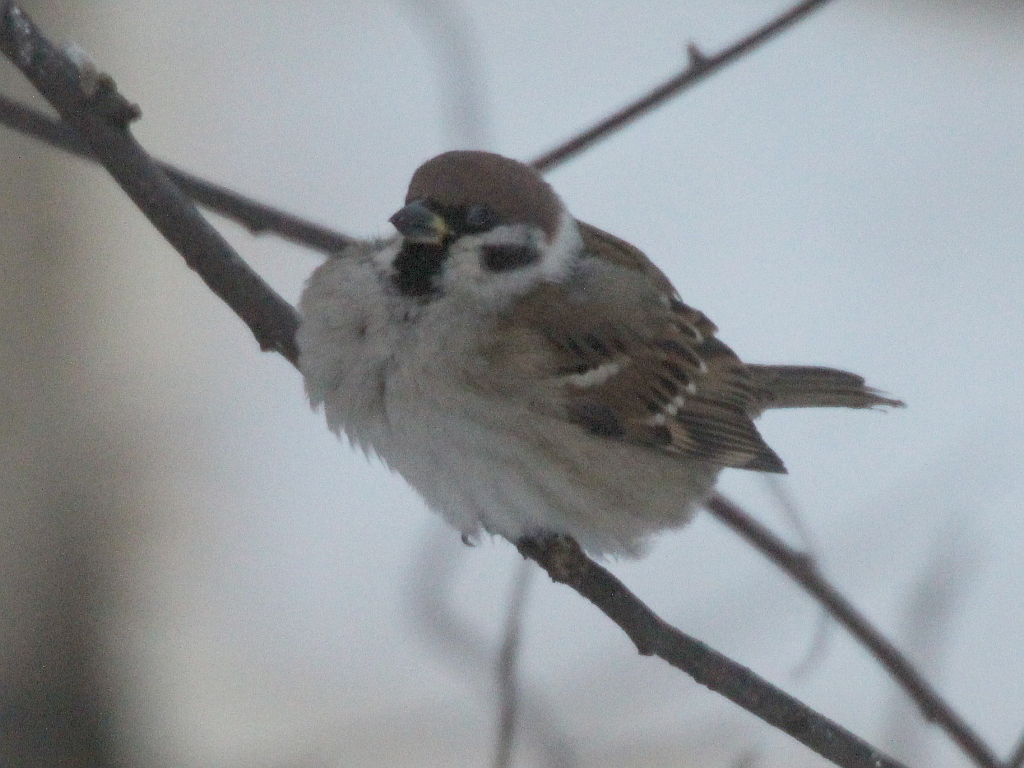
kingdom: Animalia
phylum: Chordata
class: Aves
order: Passeriformes
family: Passeridae
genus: Passer
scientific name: Passer montanus
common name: Eurasian tree sparrow
